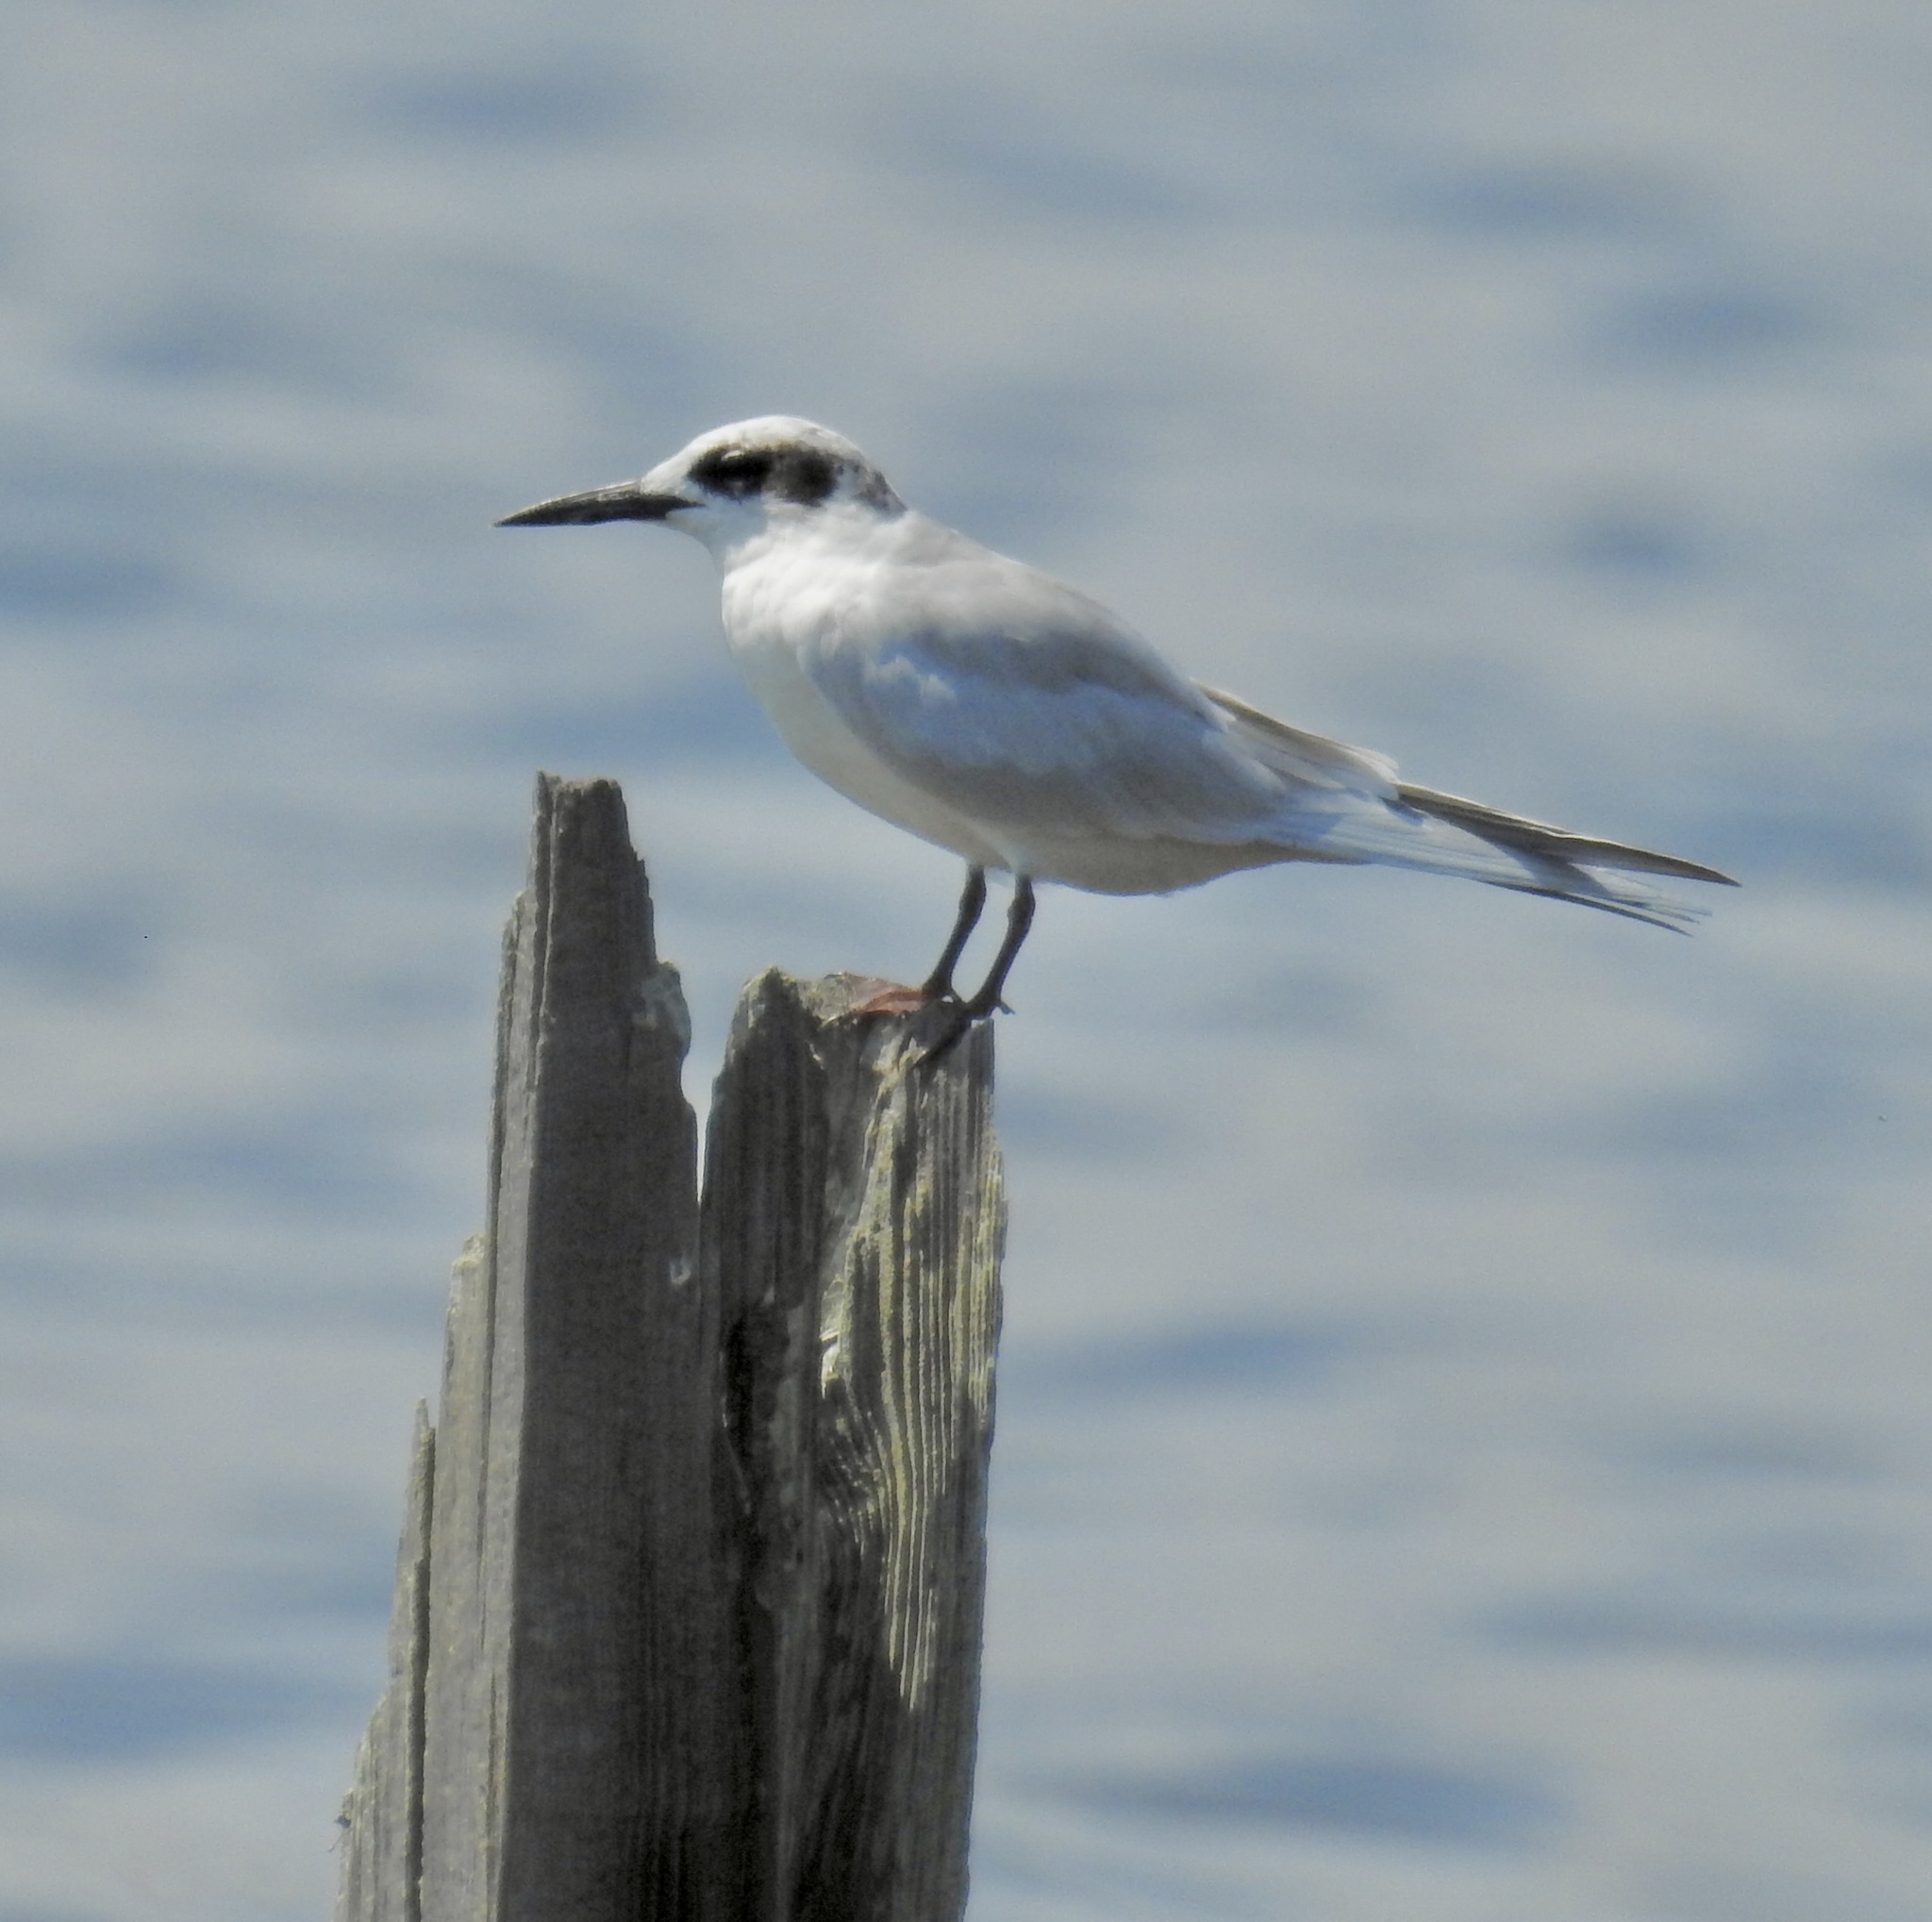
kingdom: Animalia
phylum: Chordata
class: Aves
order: Charadriiformes
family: Laridae
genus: Sterna
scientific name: Sterna forsteri
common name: Forster's tern
